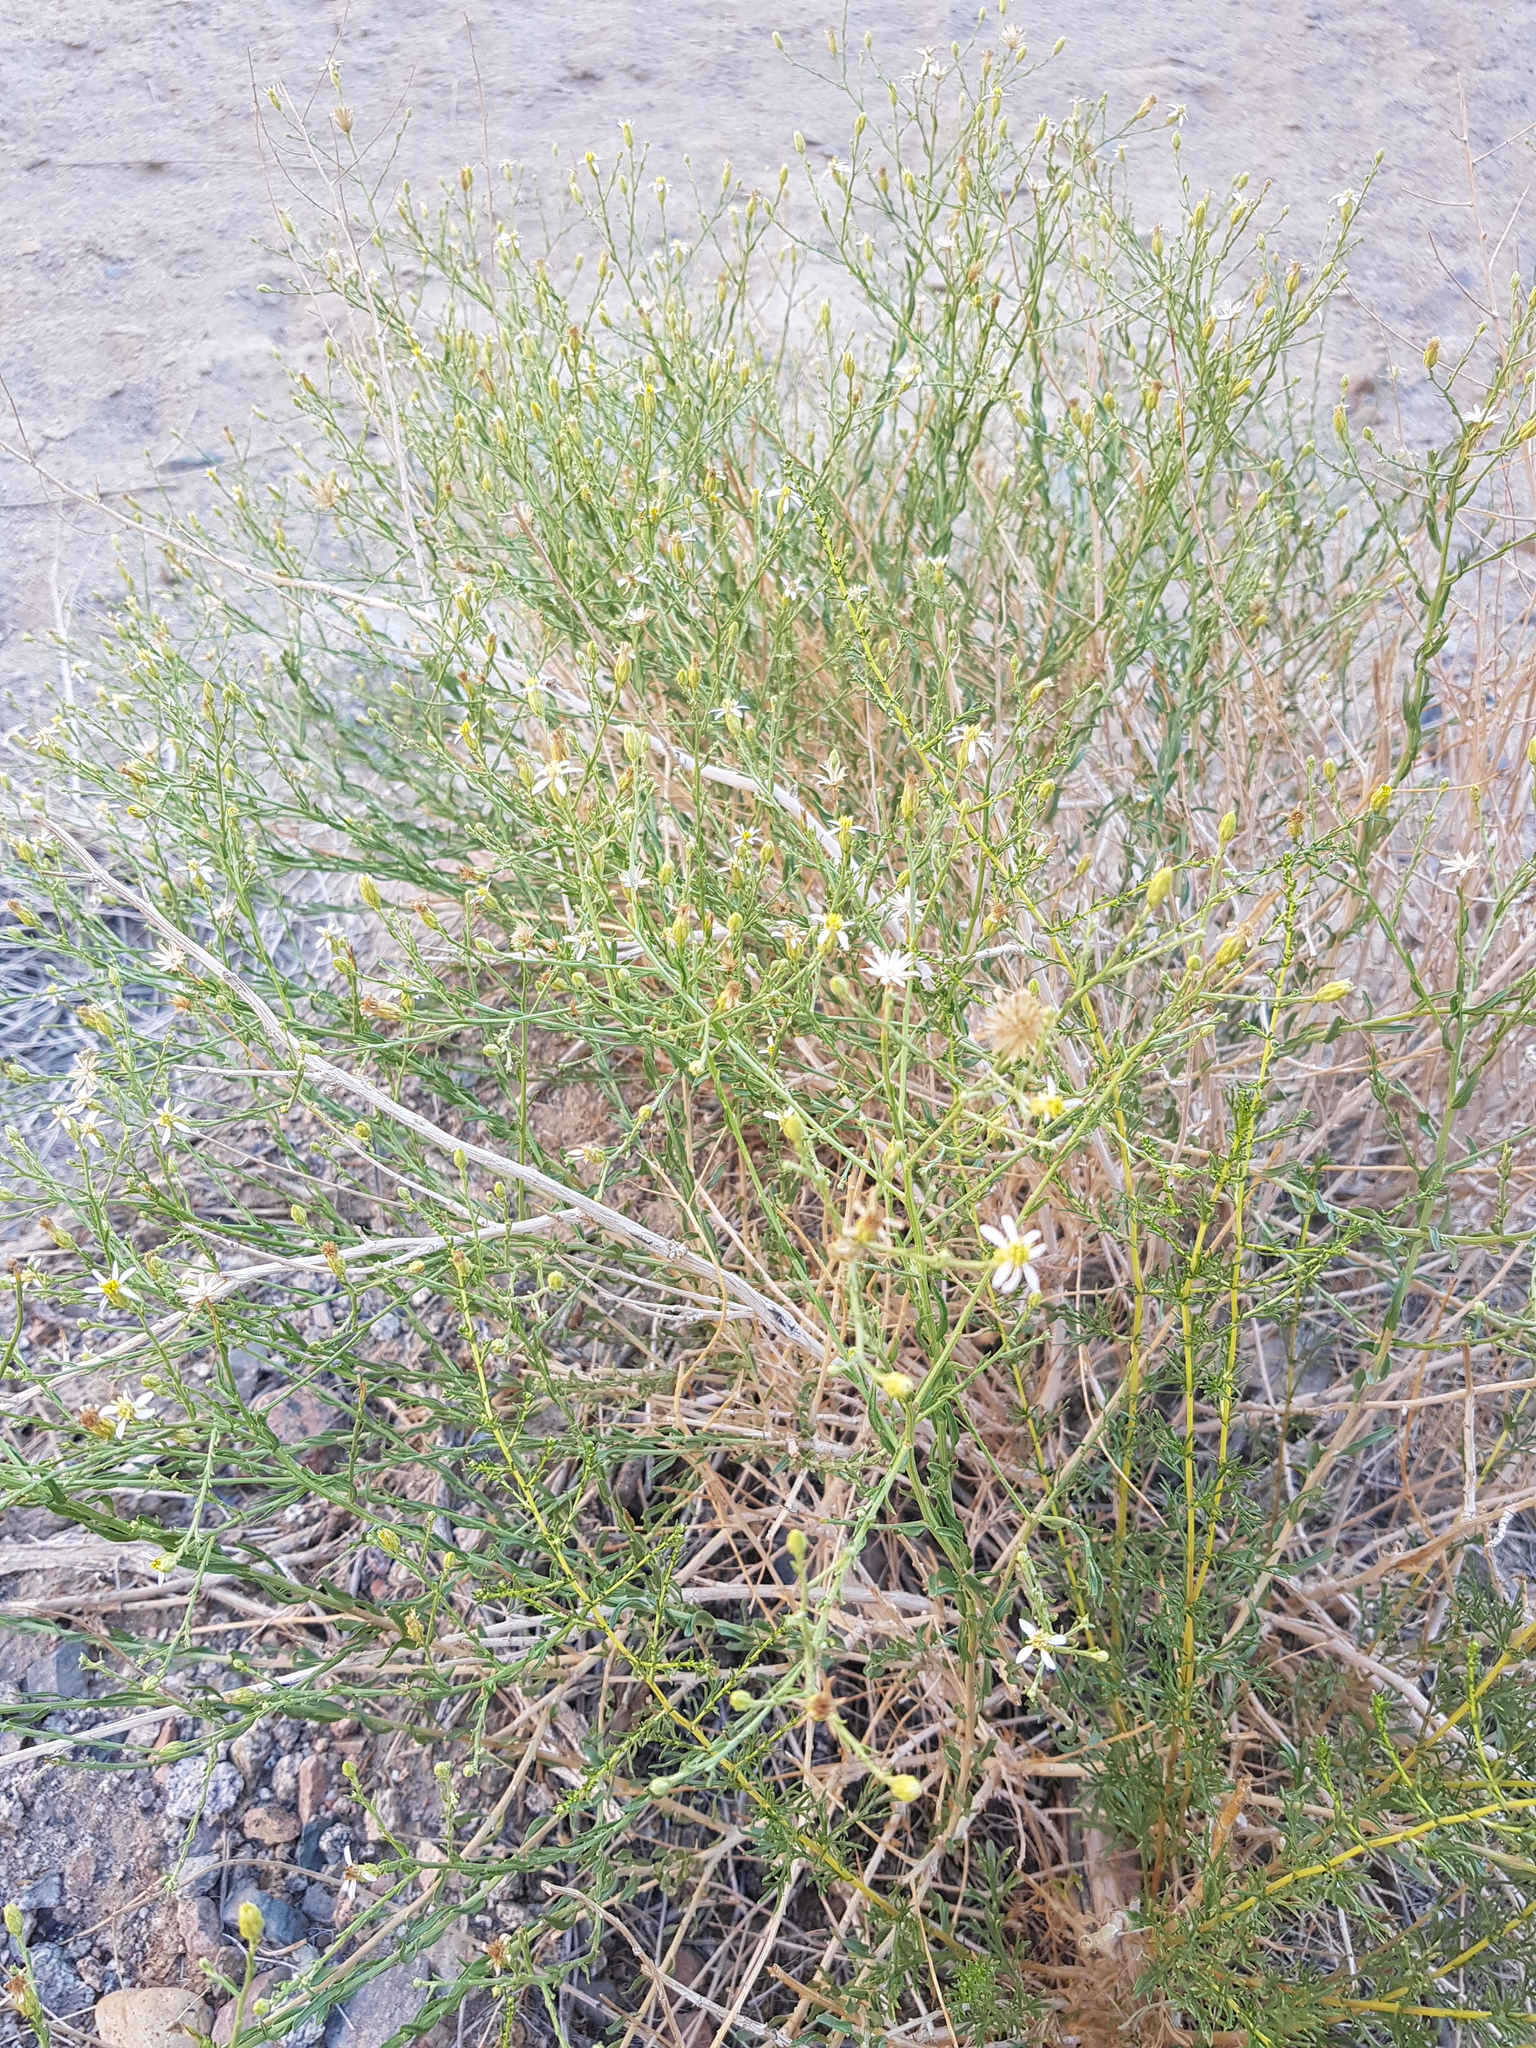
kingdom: Plantae
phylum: Tracheophyta
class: Magnoliopsida
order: Asterales
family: Asteraceae
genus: Asterothamnus
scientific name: Asterothamnus centraliasiaticus
